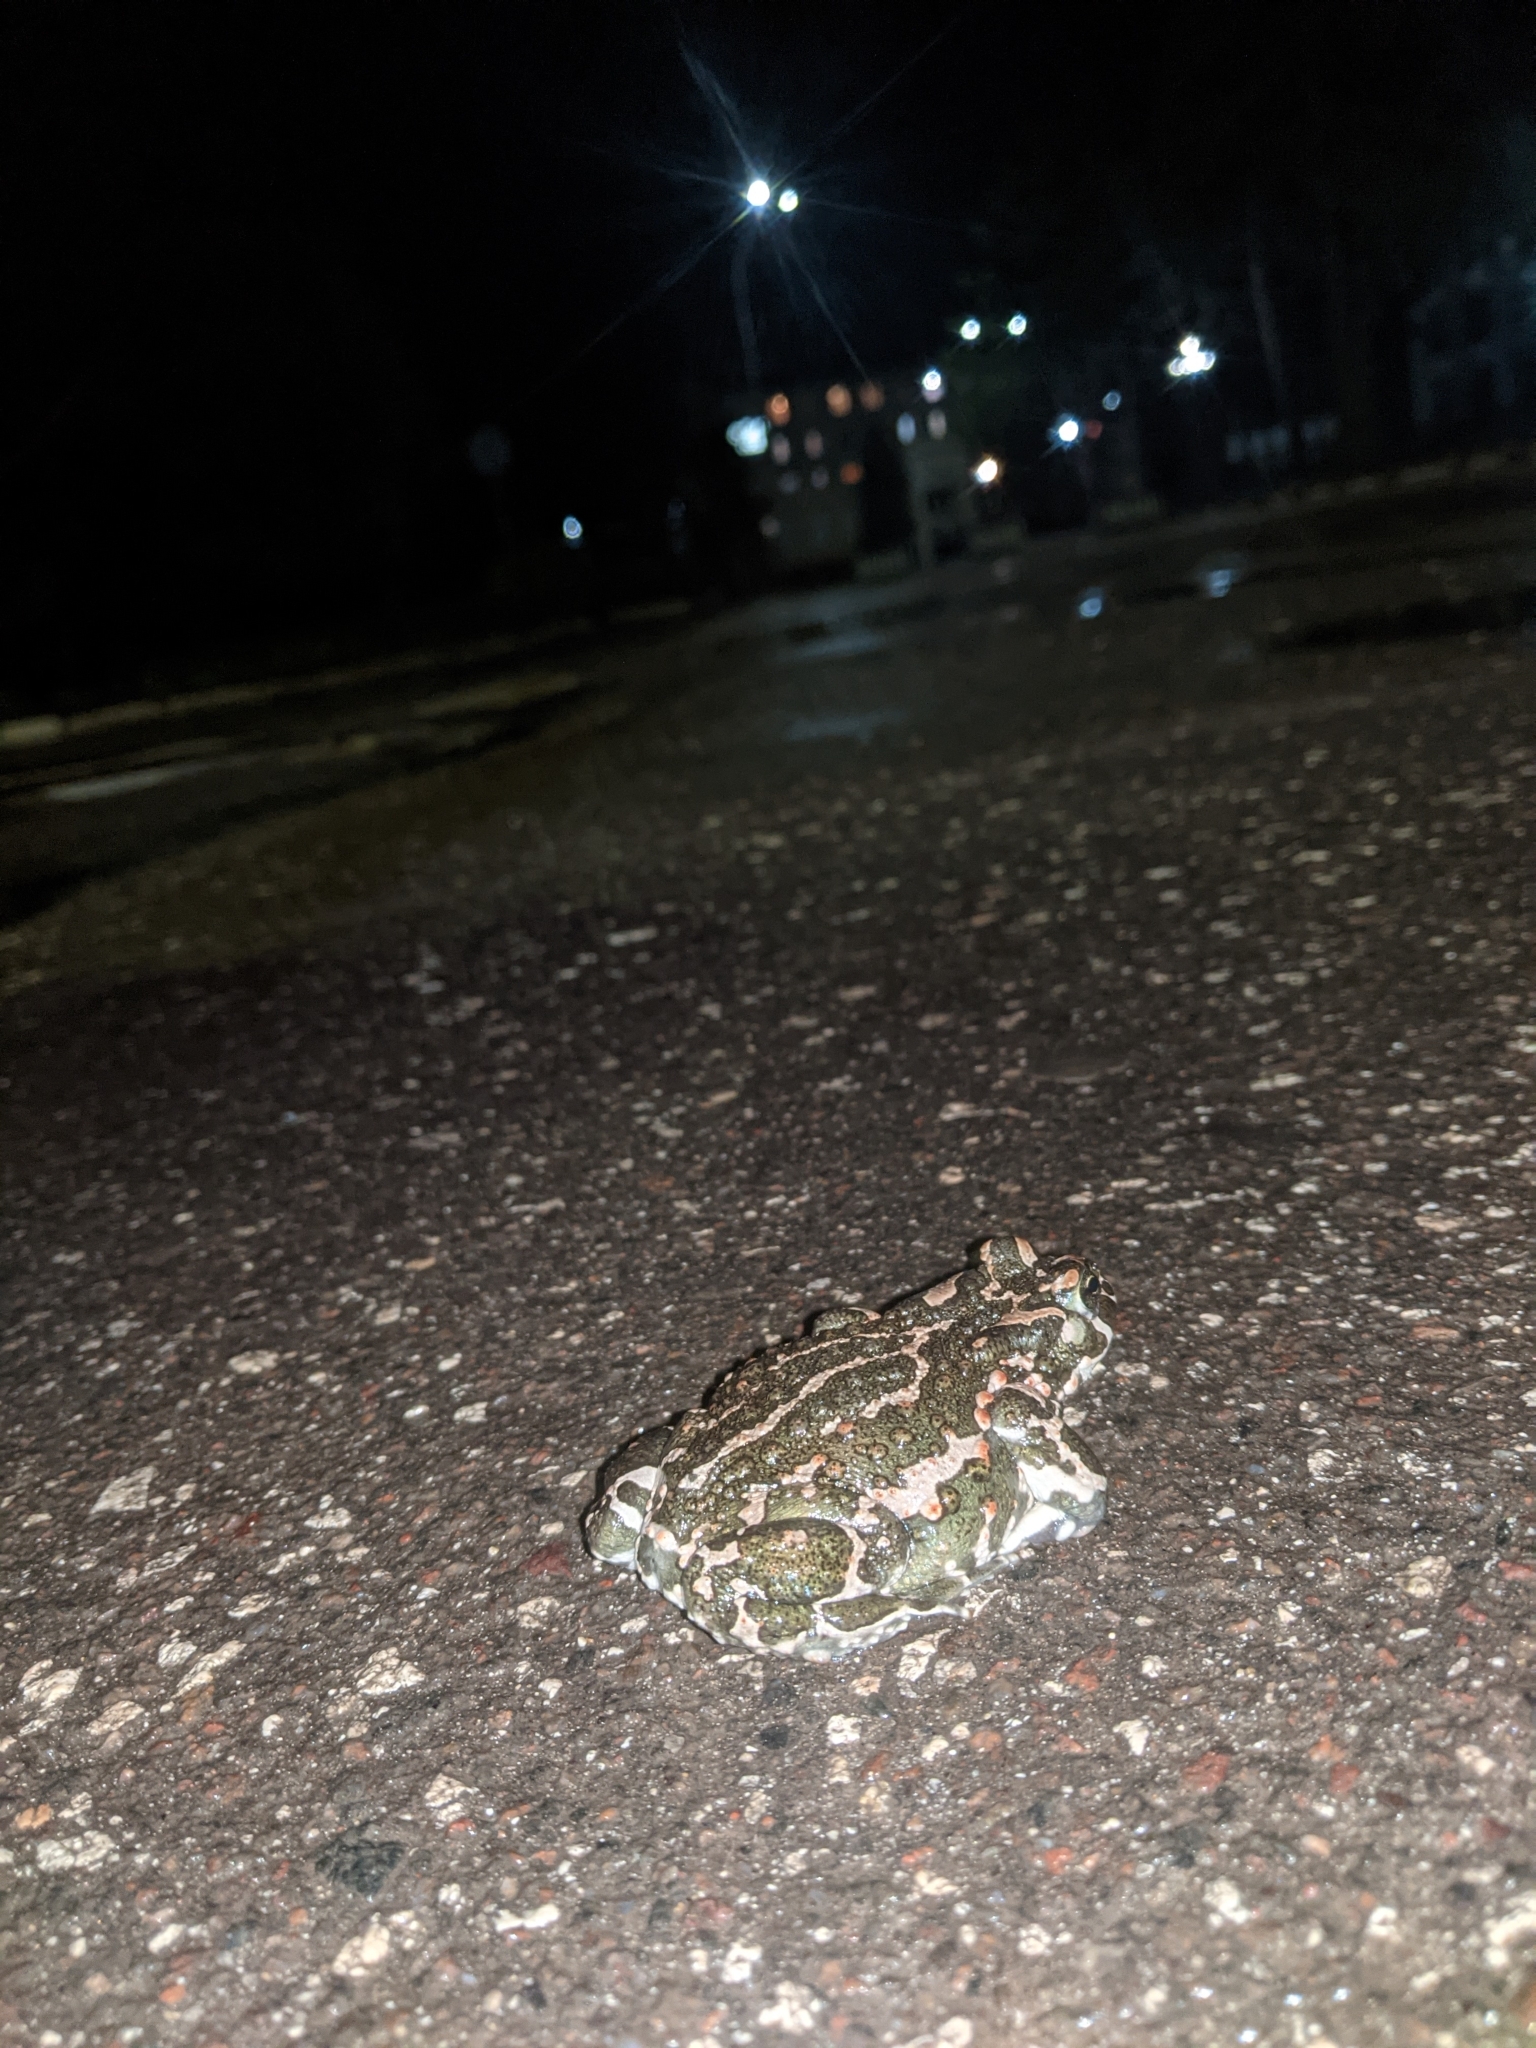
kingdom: Animalia
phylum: Chordata
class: Amphibia
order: Anura
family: Bufonidae
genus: Bufotes
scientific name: Bufotes viridis
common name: European green toad
